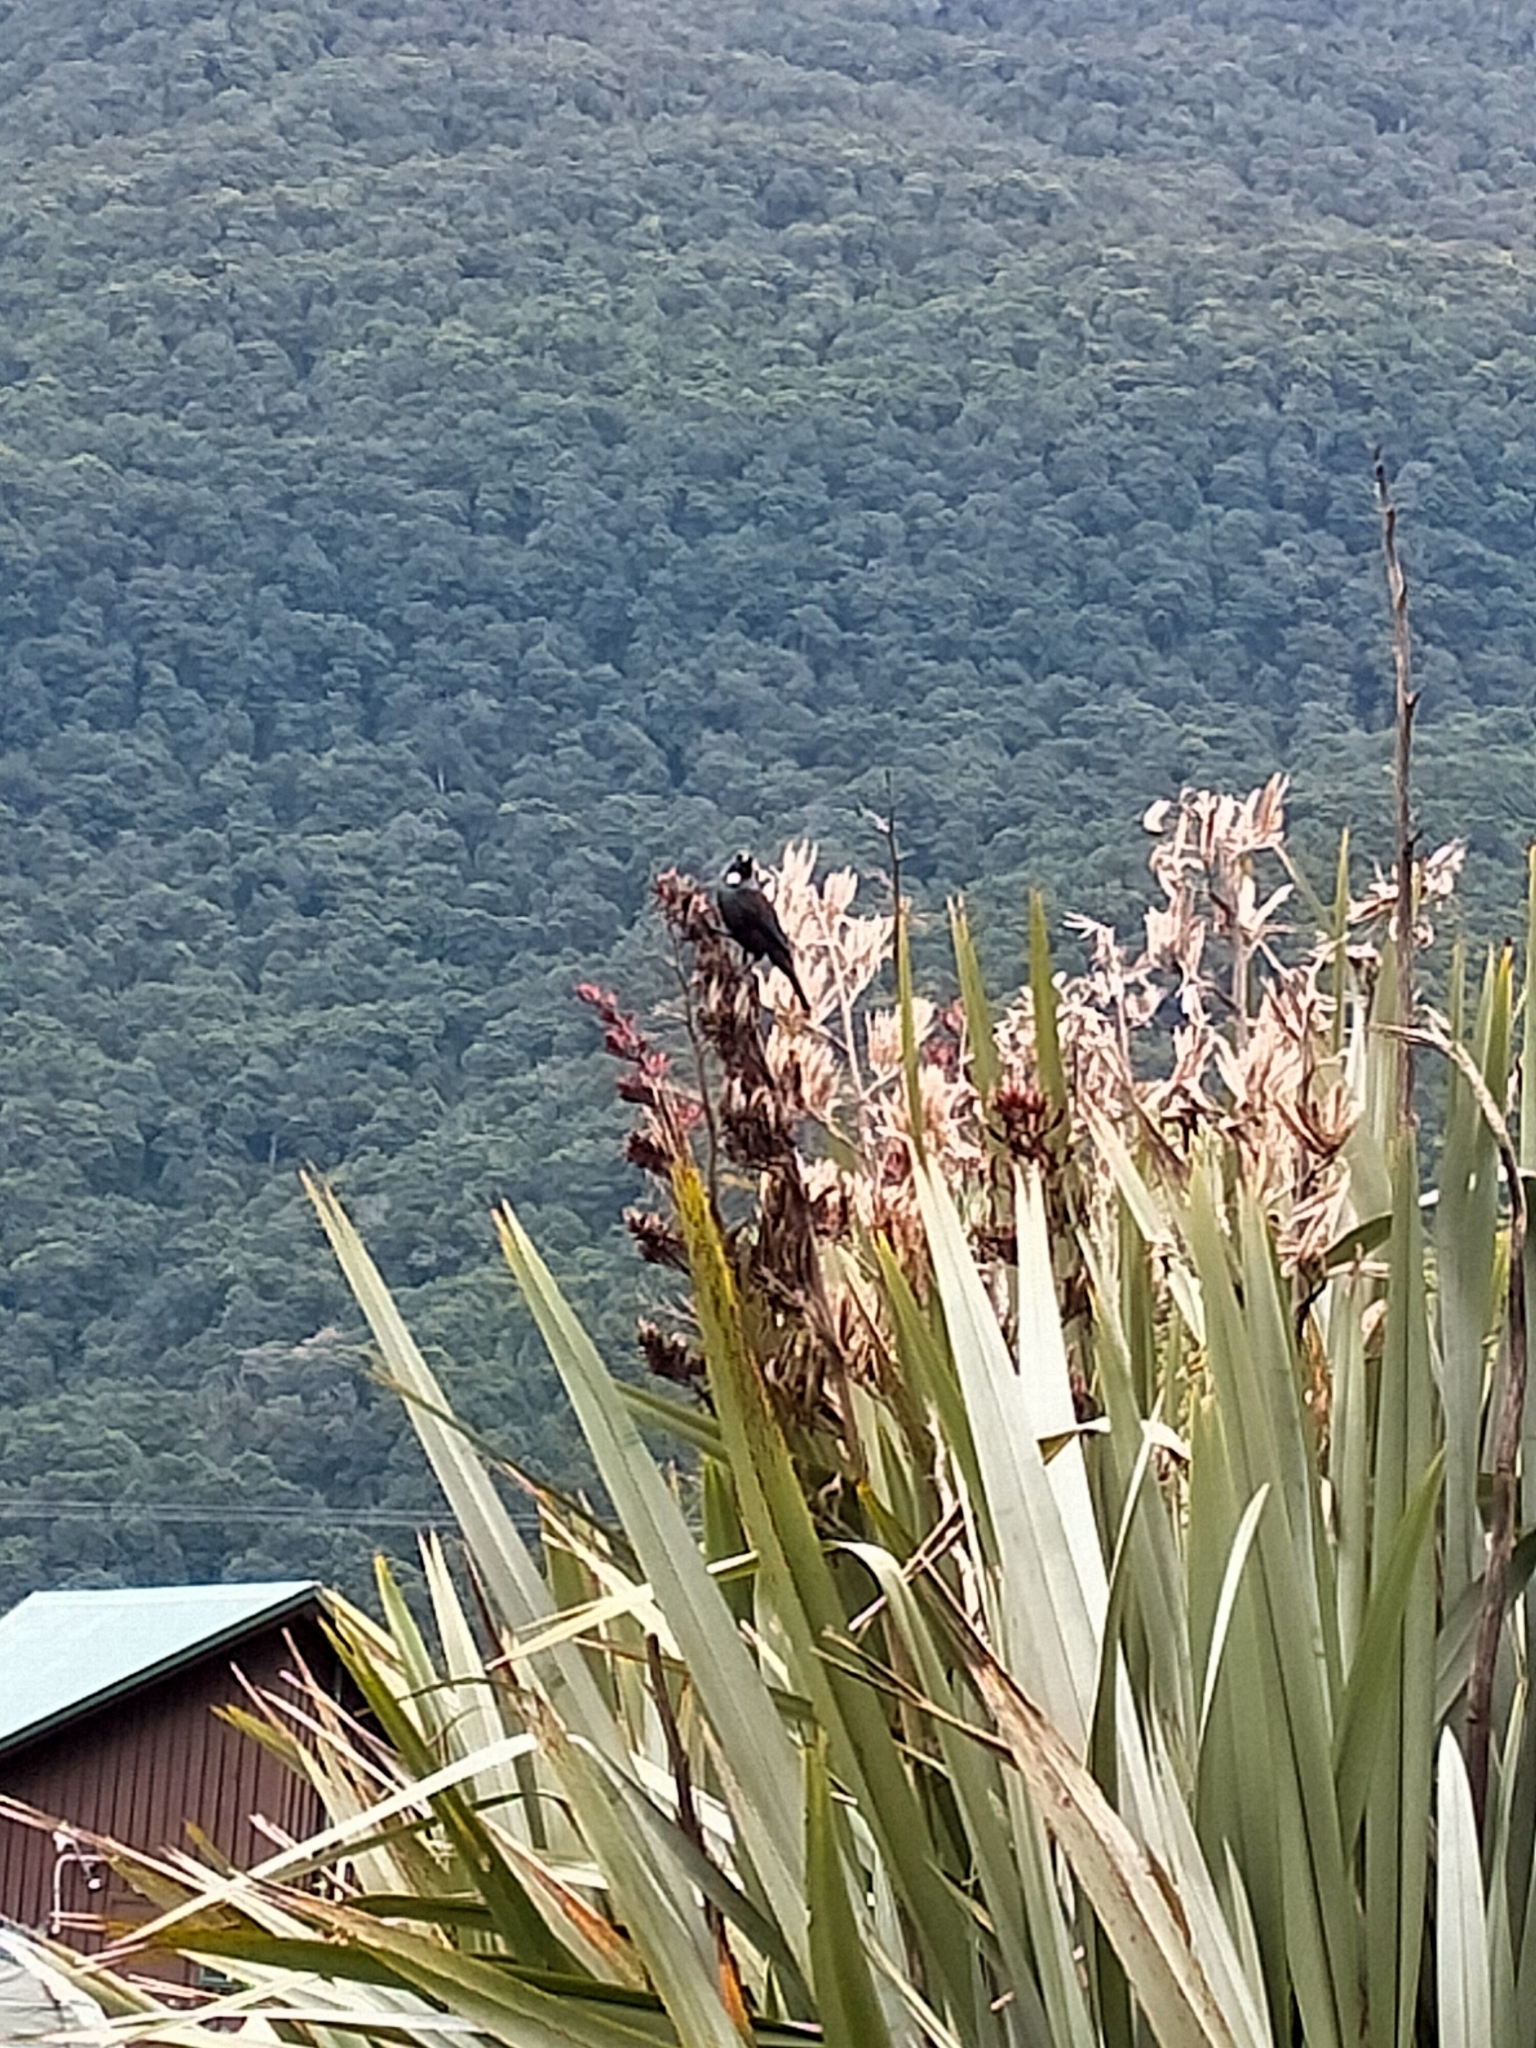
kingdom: Animalia
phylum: Chordata
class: Aves
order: Passeriformes
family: Meliphagidae
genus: Prosthemadera
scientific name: Prosthemadera novaeseelandiae
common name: Tui
